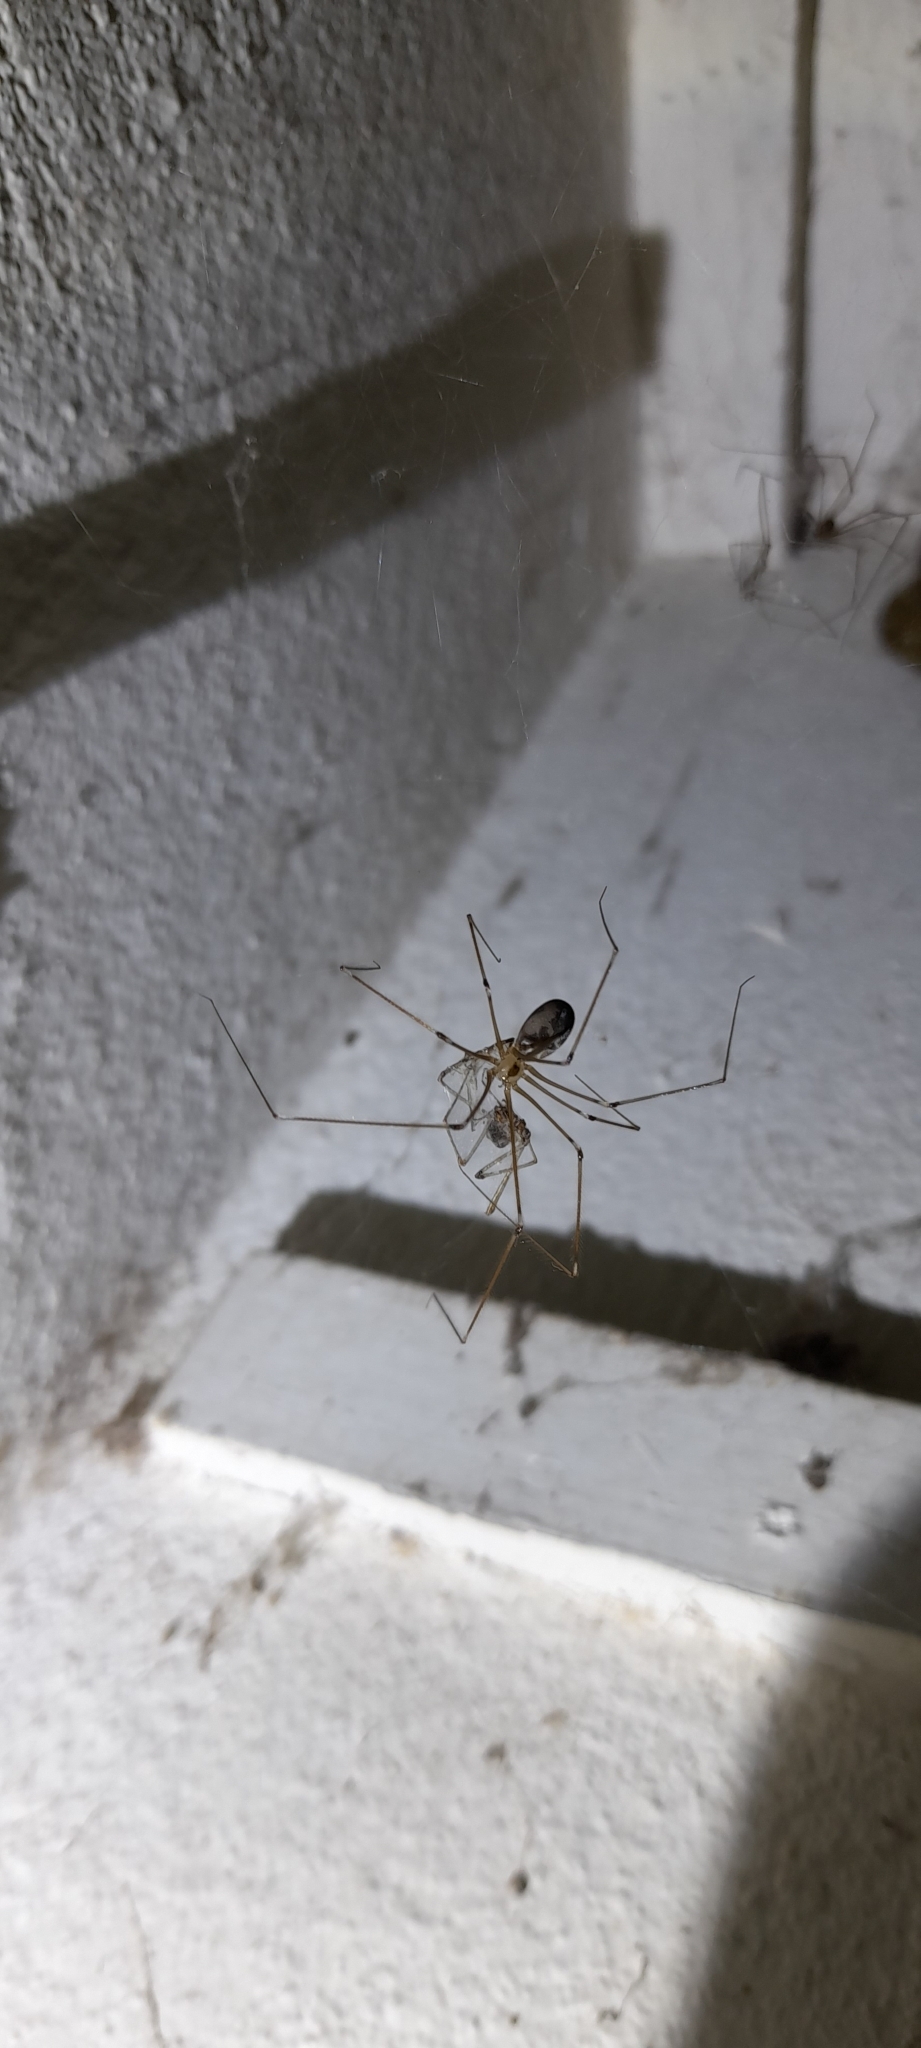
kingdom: Animalia
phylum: Arthropoda
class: Arachnida
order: Araneae
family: Pholcidae
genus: Pholcus
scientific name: Pholcus phalangioides
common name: Longbodied cellar spider
